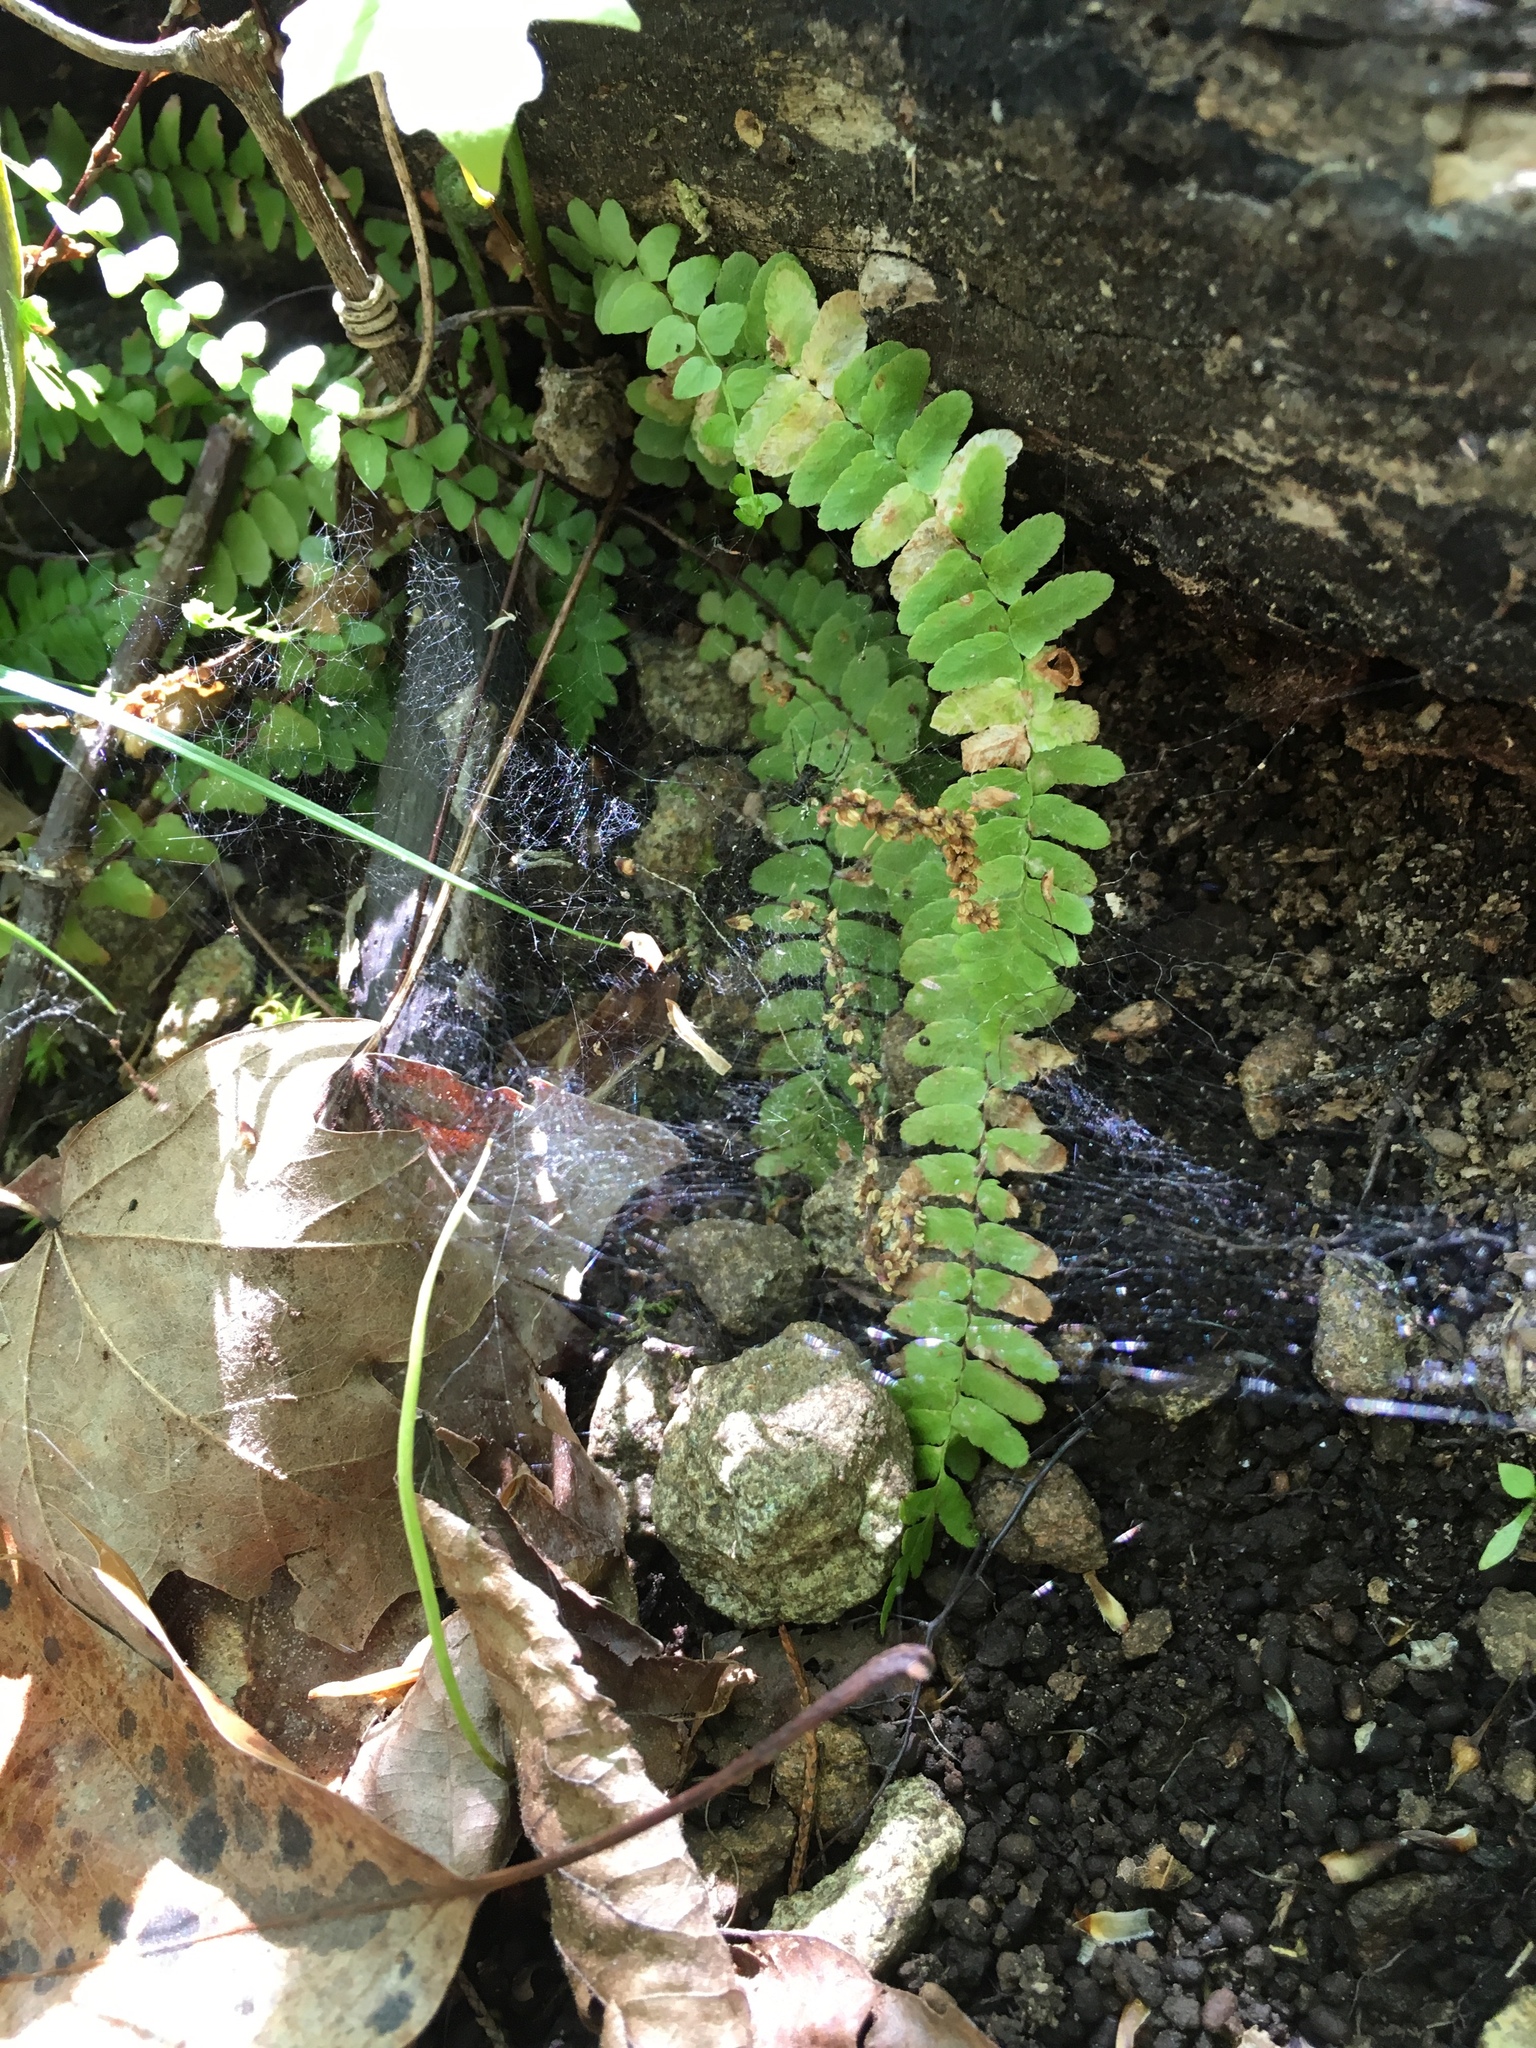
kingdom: Plantae
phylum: Tracheophyta
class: Polypodiopsida
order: Polypodiales
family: Aspleniaceae
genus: Asplenium
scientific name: Asplenium platyneuron
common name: Ebony spleenwort
